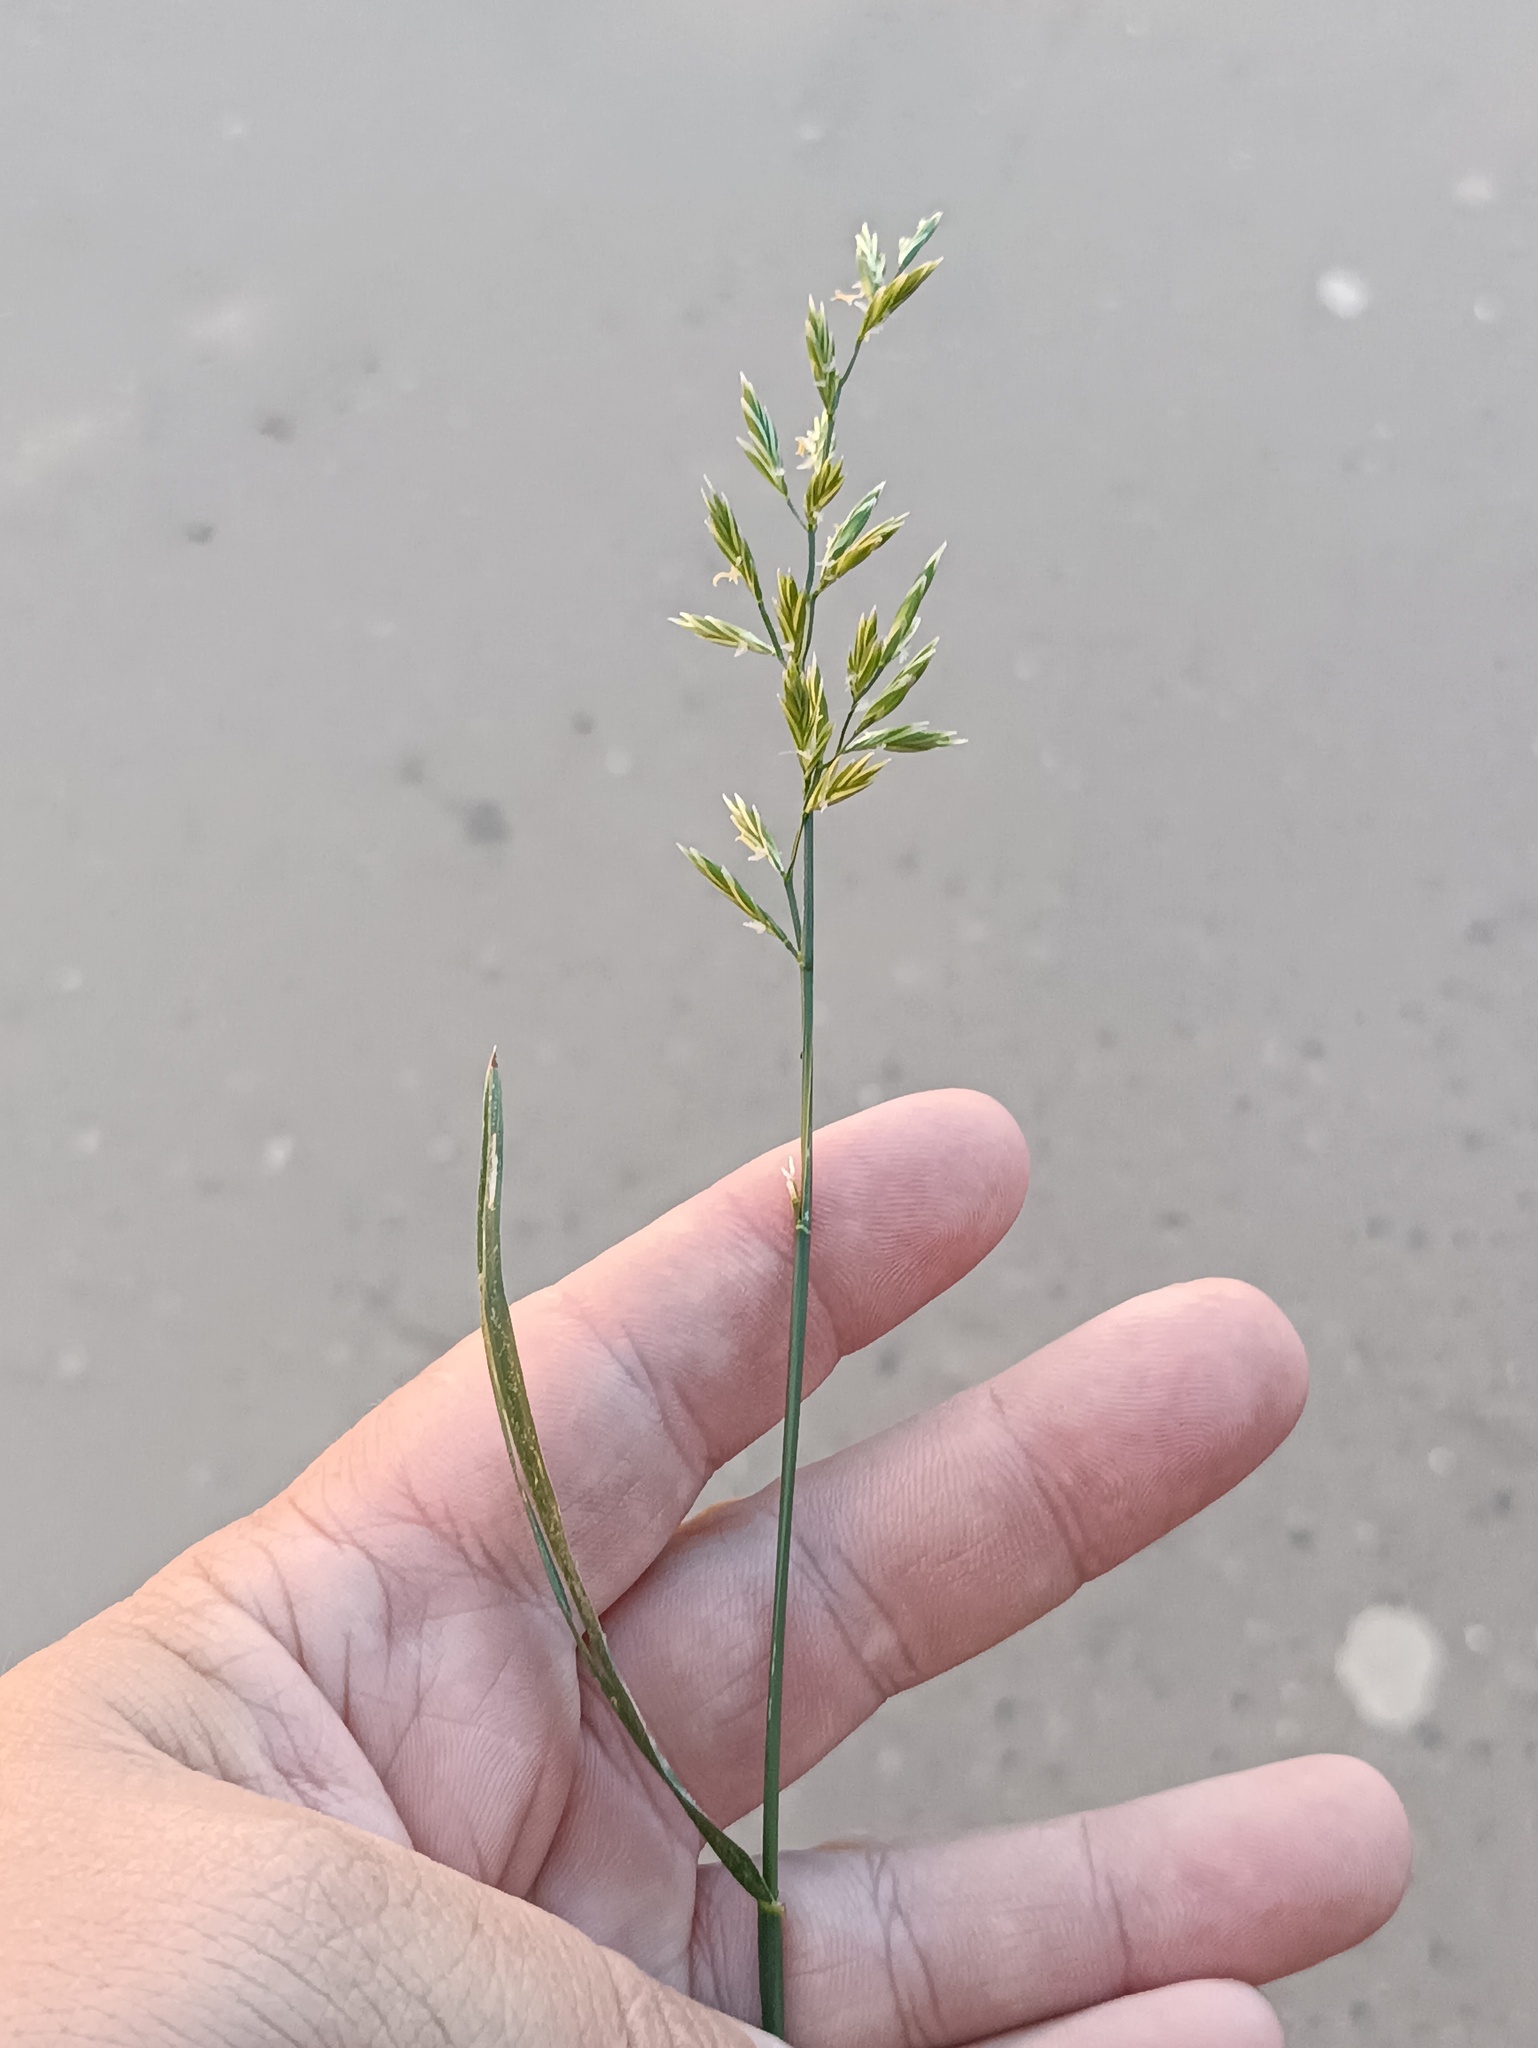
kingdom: Plantae
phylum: Tracheophyta
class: Liliopsida
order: Poales
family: Poaceae
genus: Lolium
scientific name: Lolium pratense
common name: Dover grass
